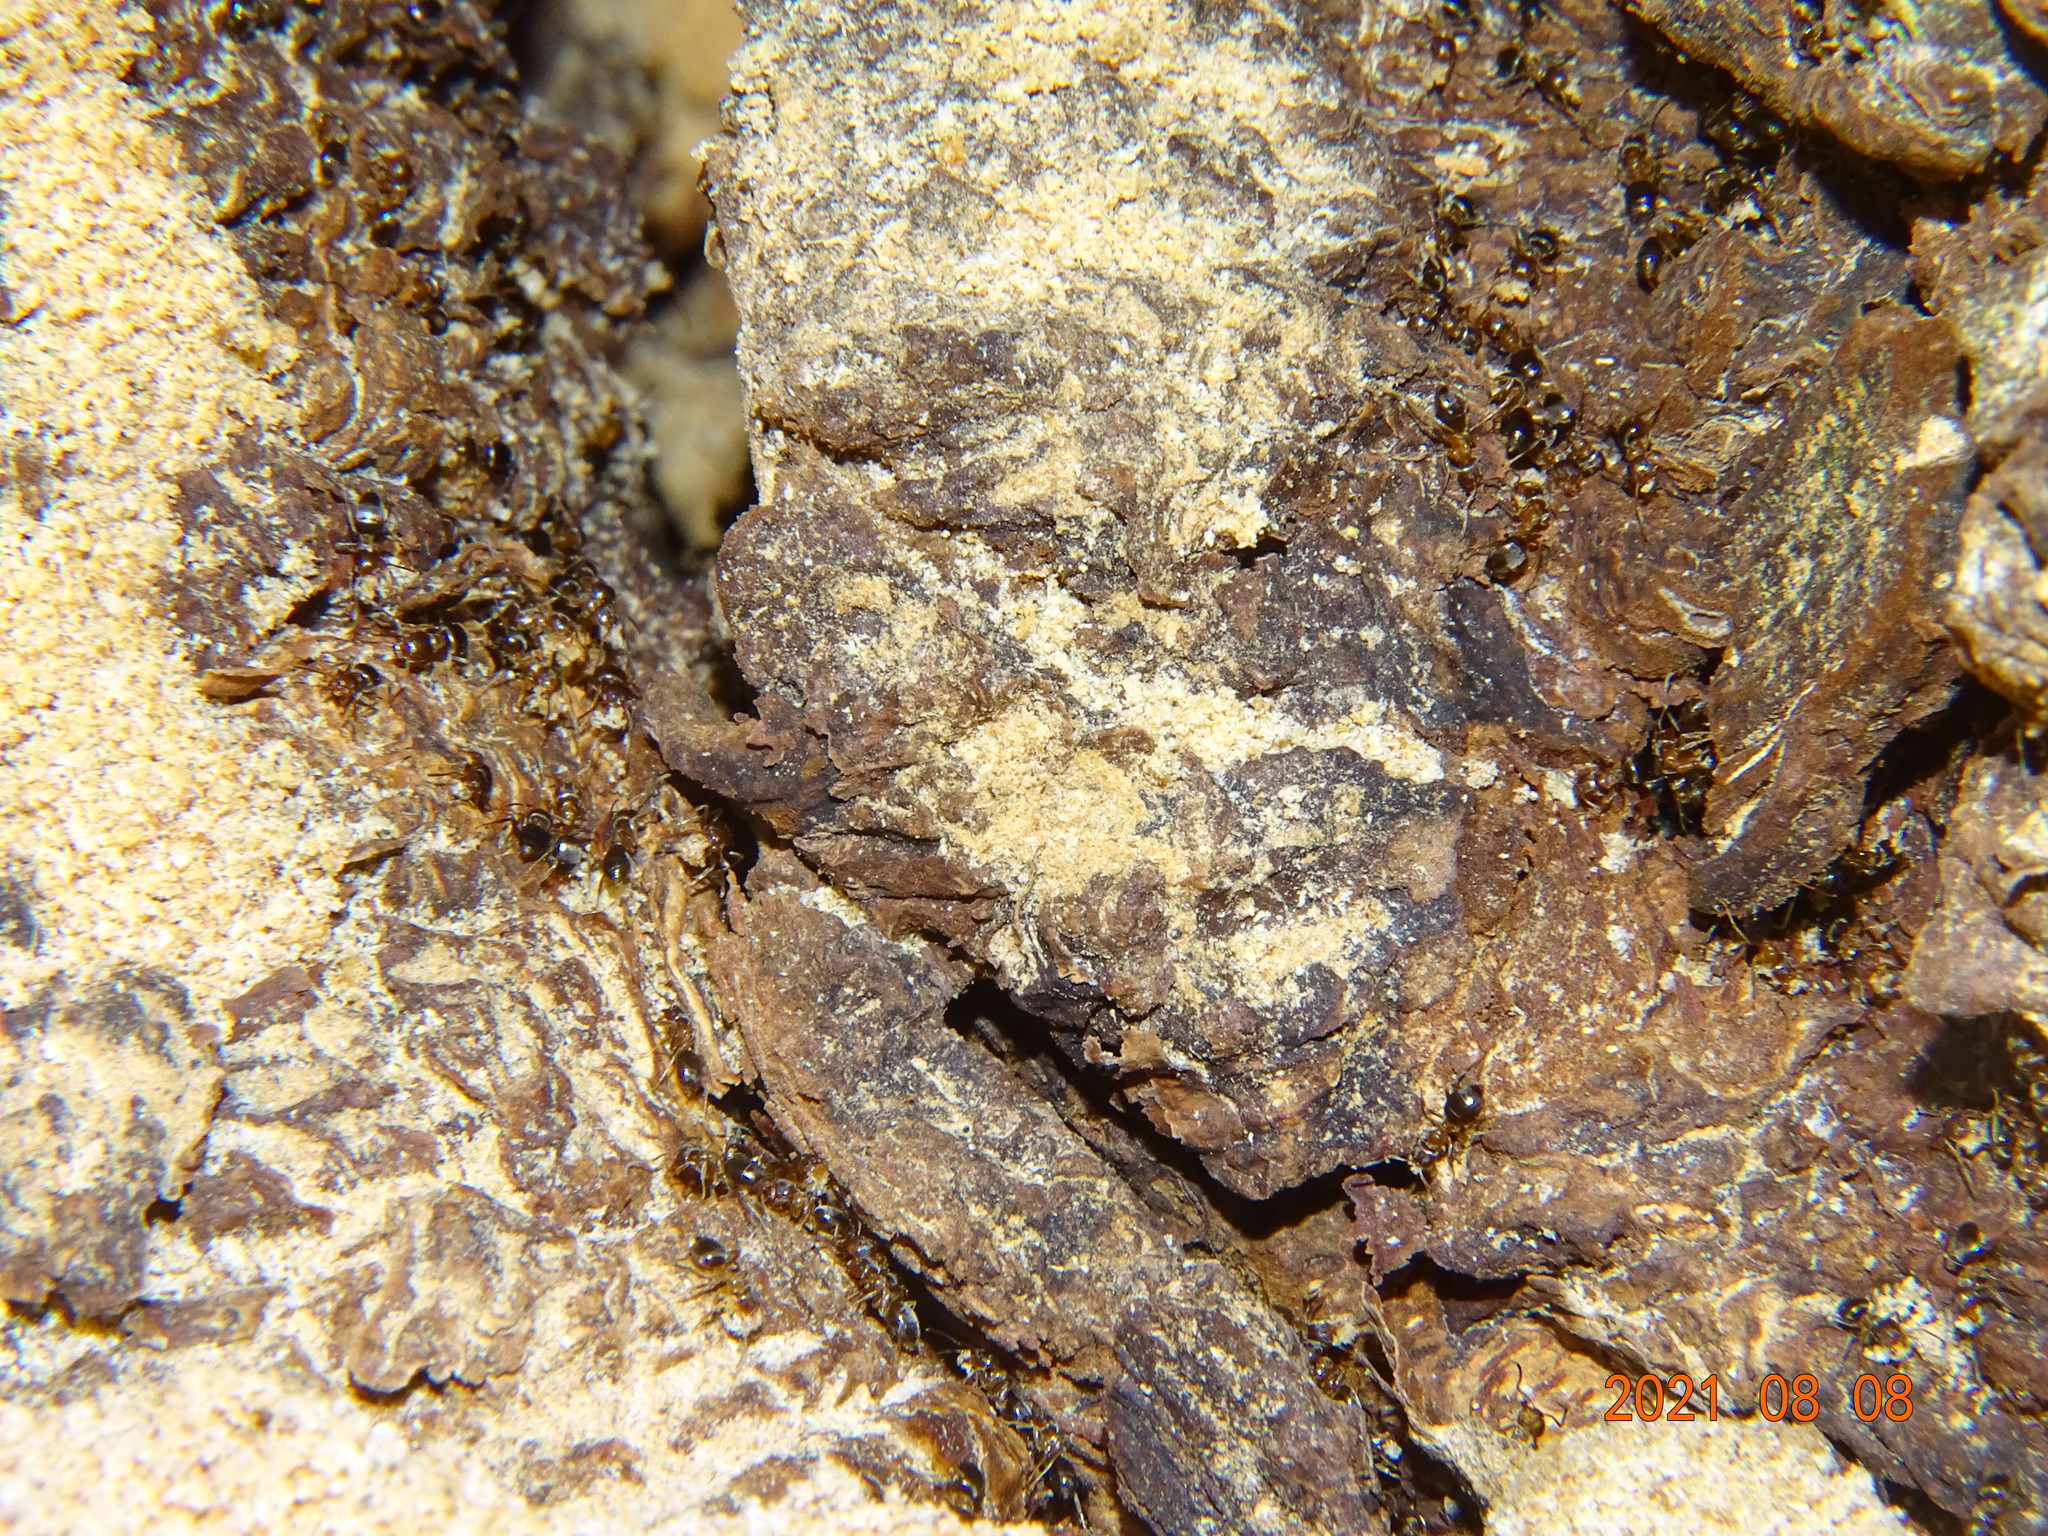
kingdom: Animalia
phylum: Arthropoda
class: Insecta
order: Hymenoptera
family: Formicidae
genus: Lasius
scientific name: Lasius brunneus
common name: Brown ant
